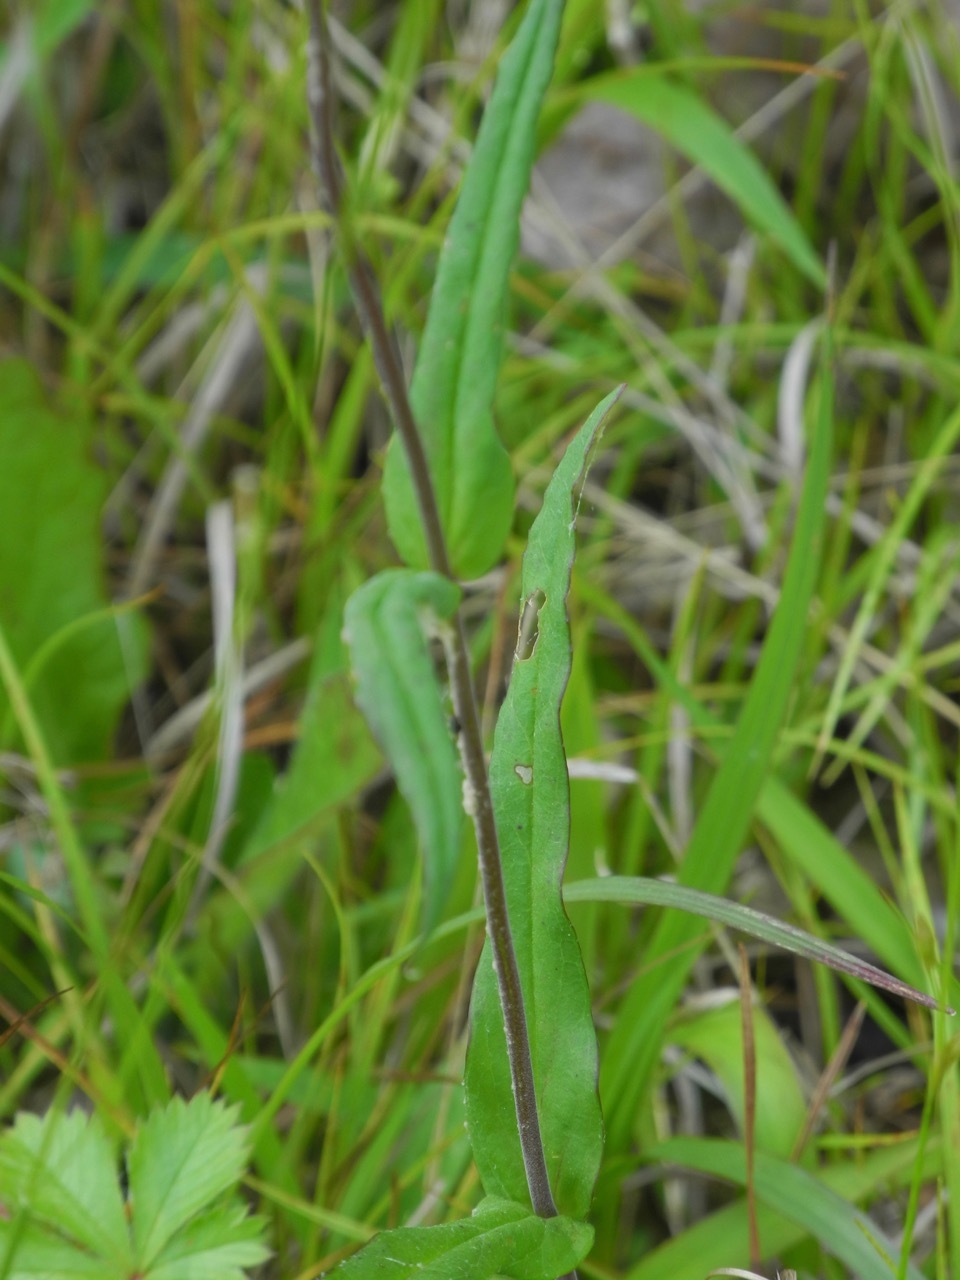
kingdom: Plantae
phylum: Tracheophyta
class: Magnoliopsida
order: Lamiales
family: Plantaginaceae
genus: Penstemon
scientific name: Penstemon laevigatus
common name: Eastern beardtongue
